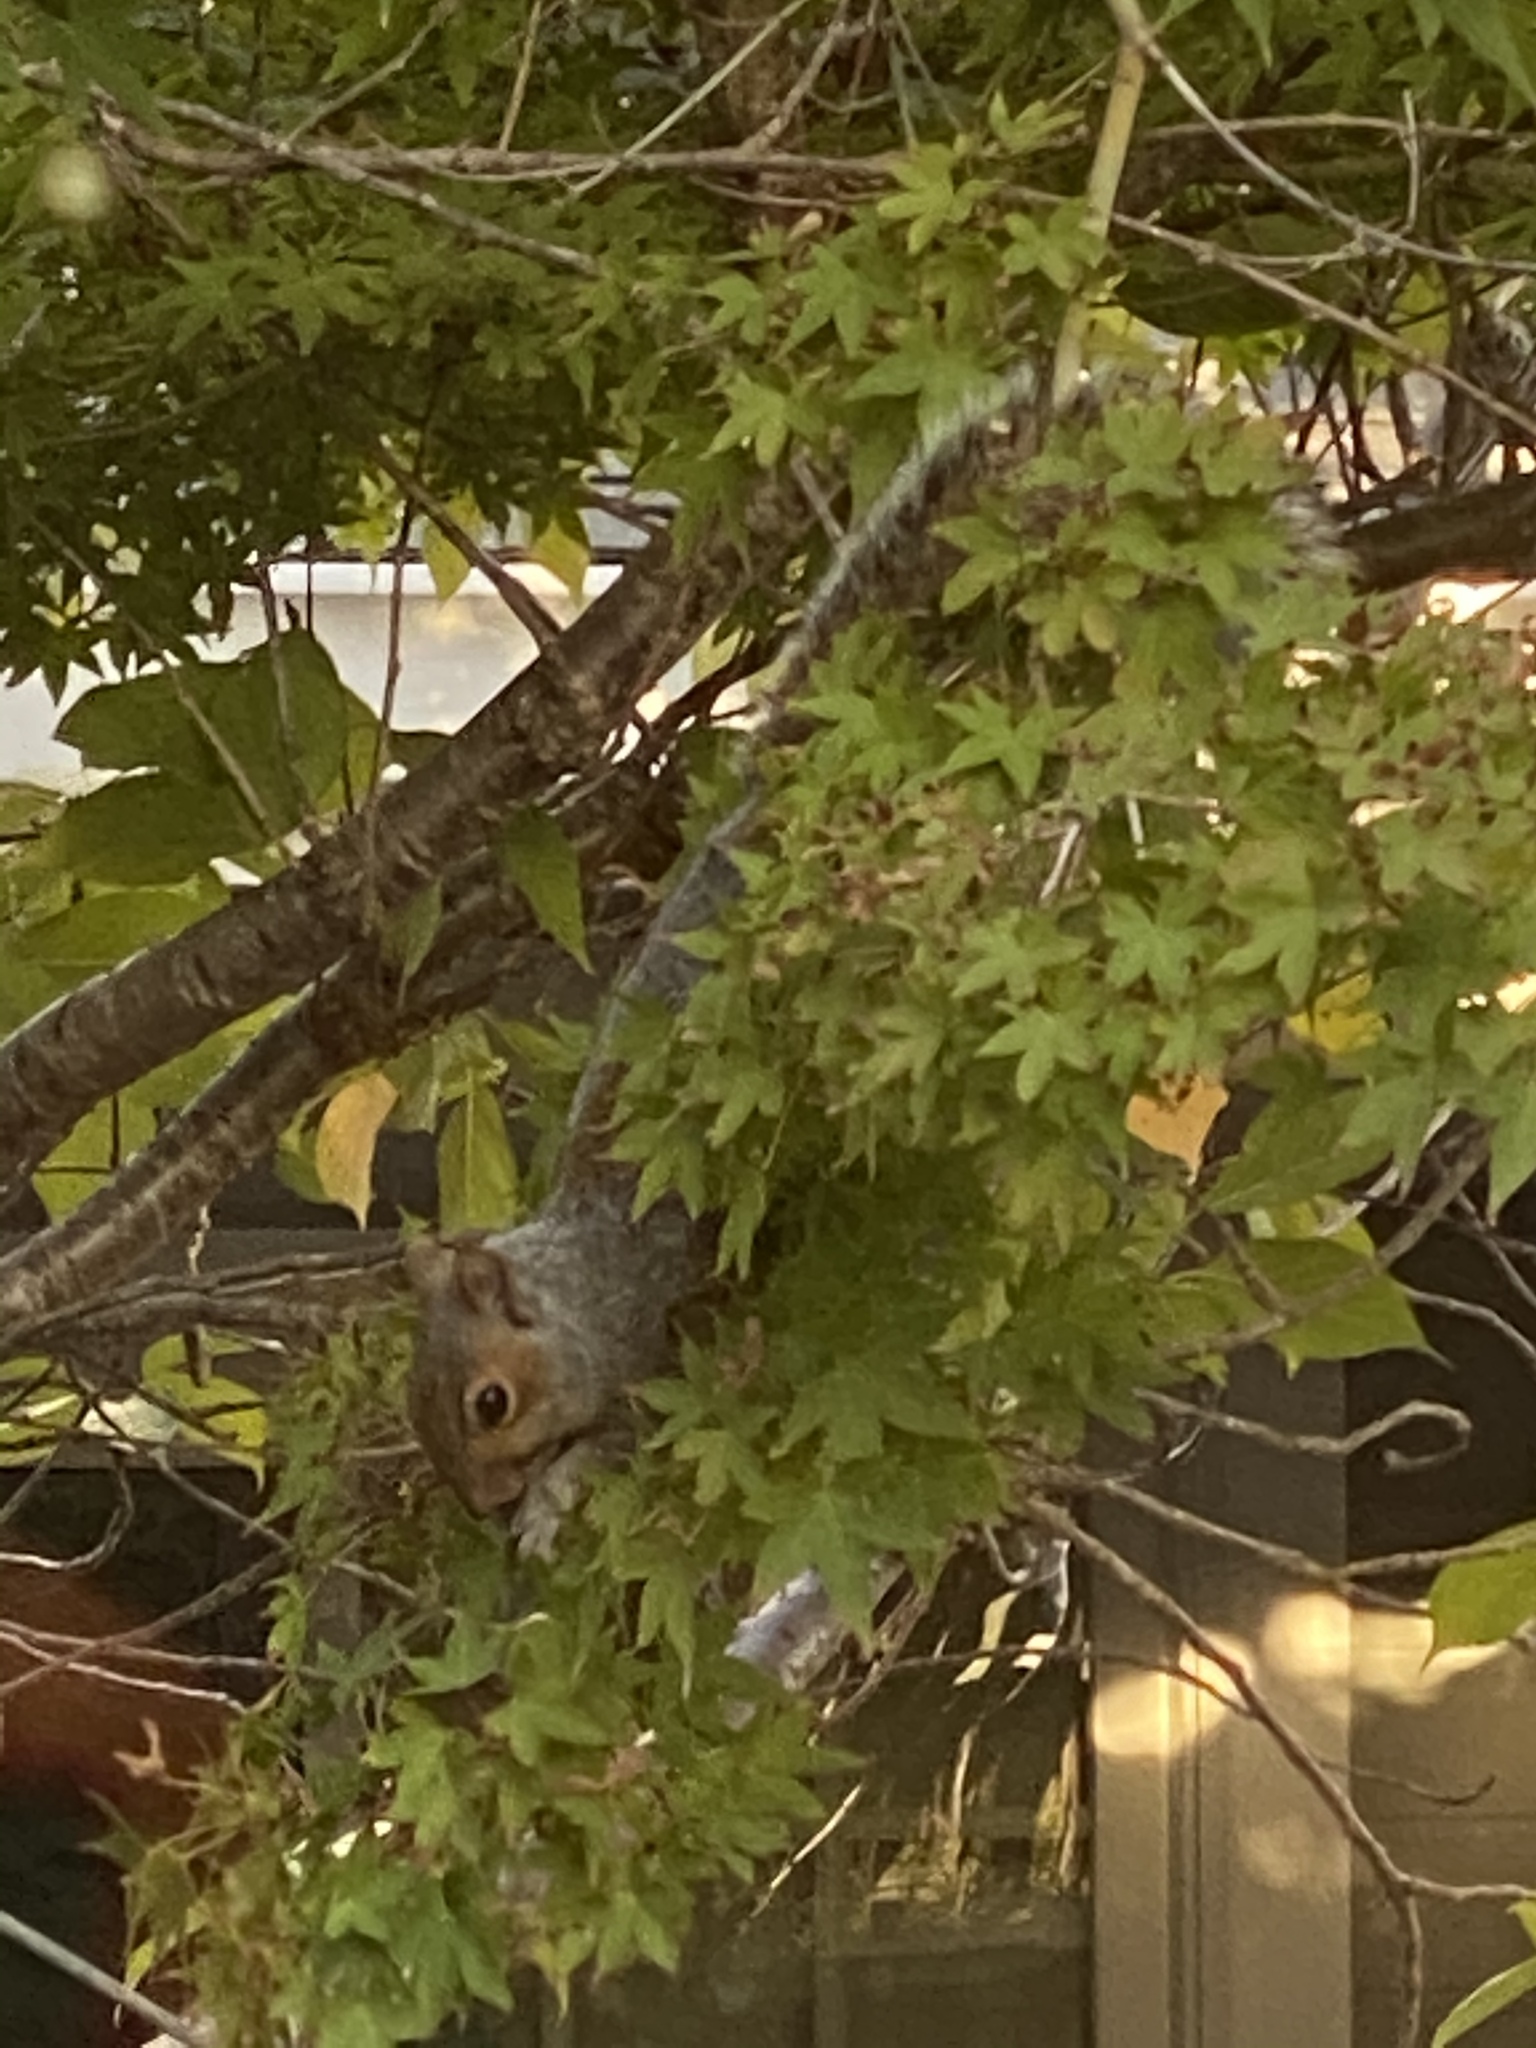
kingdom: Animalia
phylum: Chordata
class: Mammalia
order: Rodentia
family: Sciuridae
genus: Sciurus
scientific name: Sciurus carolinensis
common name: Eastern gray squirrel
